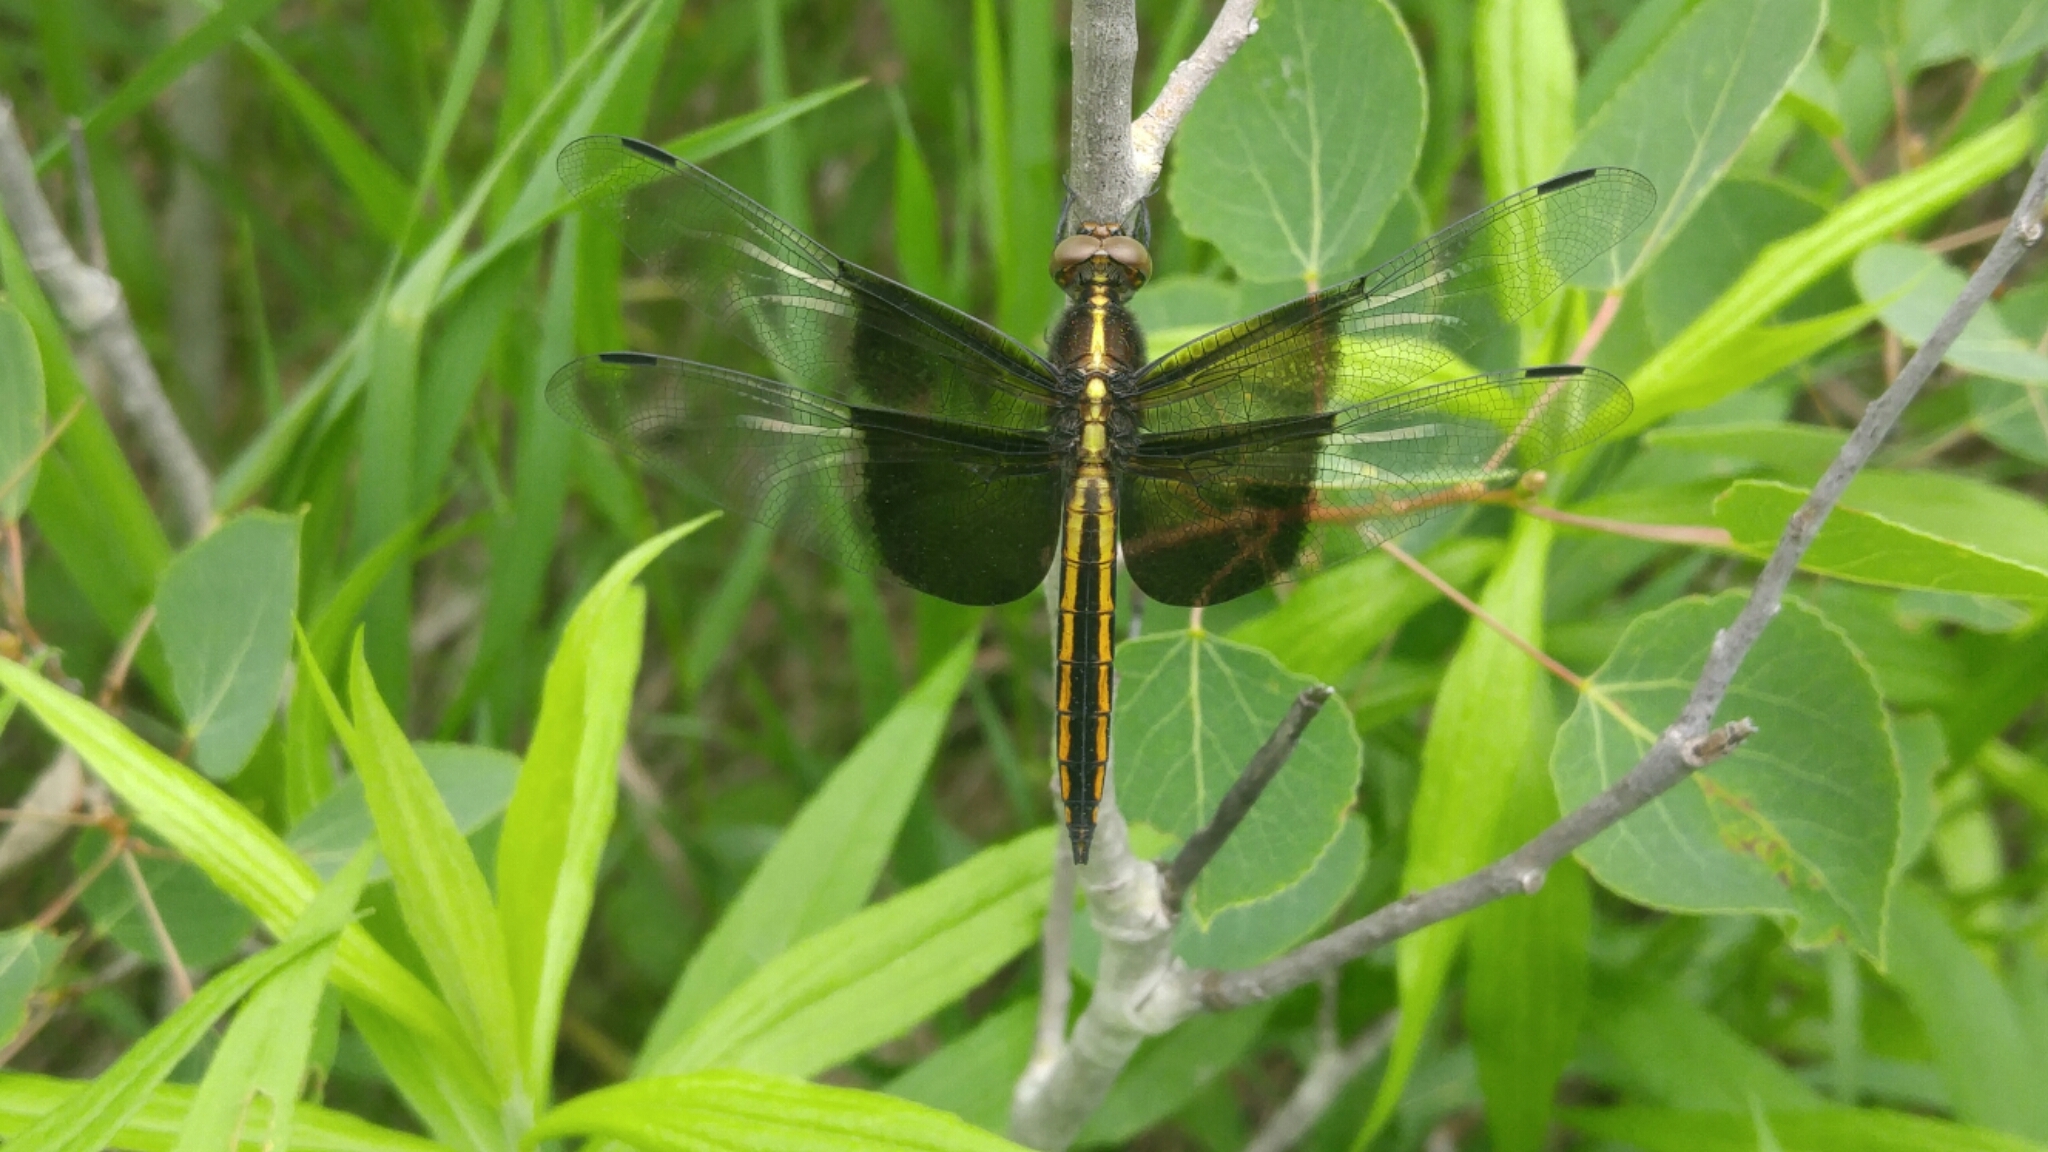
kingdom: Animalia
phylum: Arthropoda
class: Insecta
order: Odonata
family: Libellulidae
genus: Libellula
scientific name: Libellula luctuosa
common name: Widow skimmer
